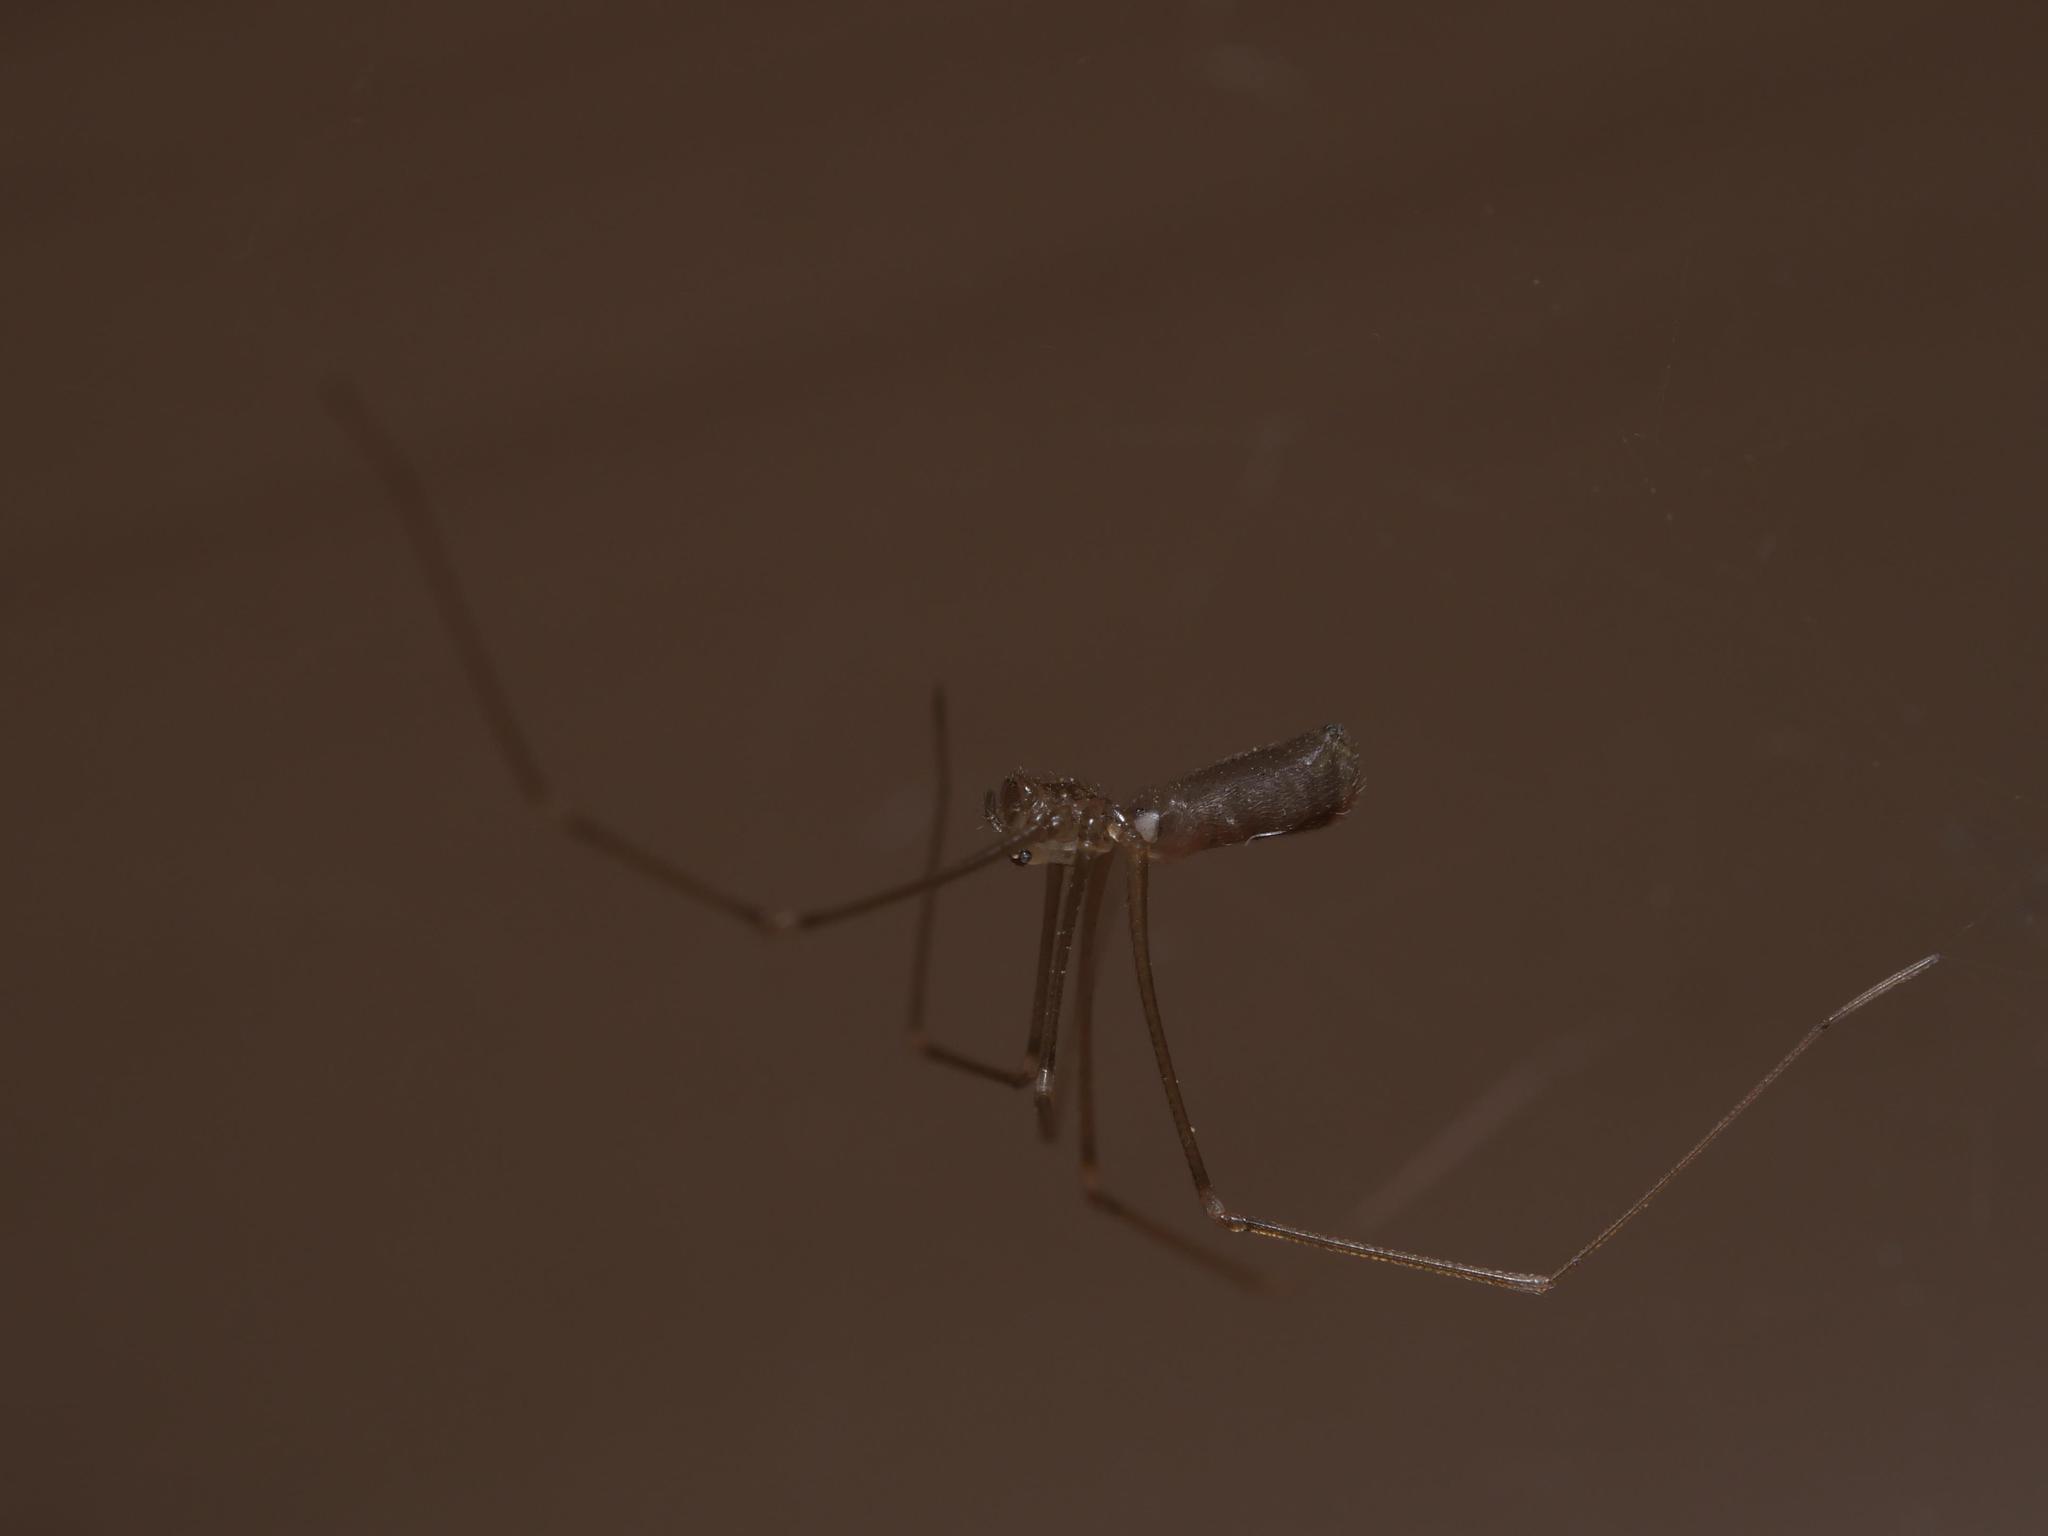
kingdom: Animalia
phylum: Arthropoda
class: Arachnida
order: Araneae
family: Pholcidae
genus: Pholcus
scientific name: Pholcus phalangioides
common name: Longbodied cellar spider
